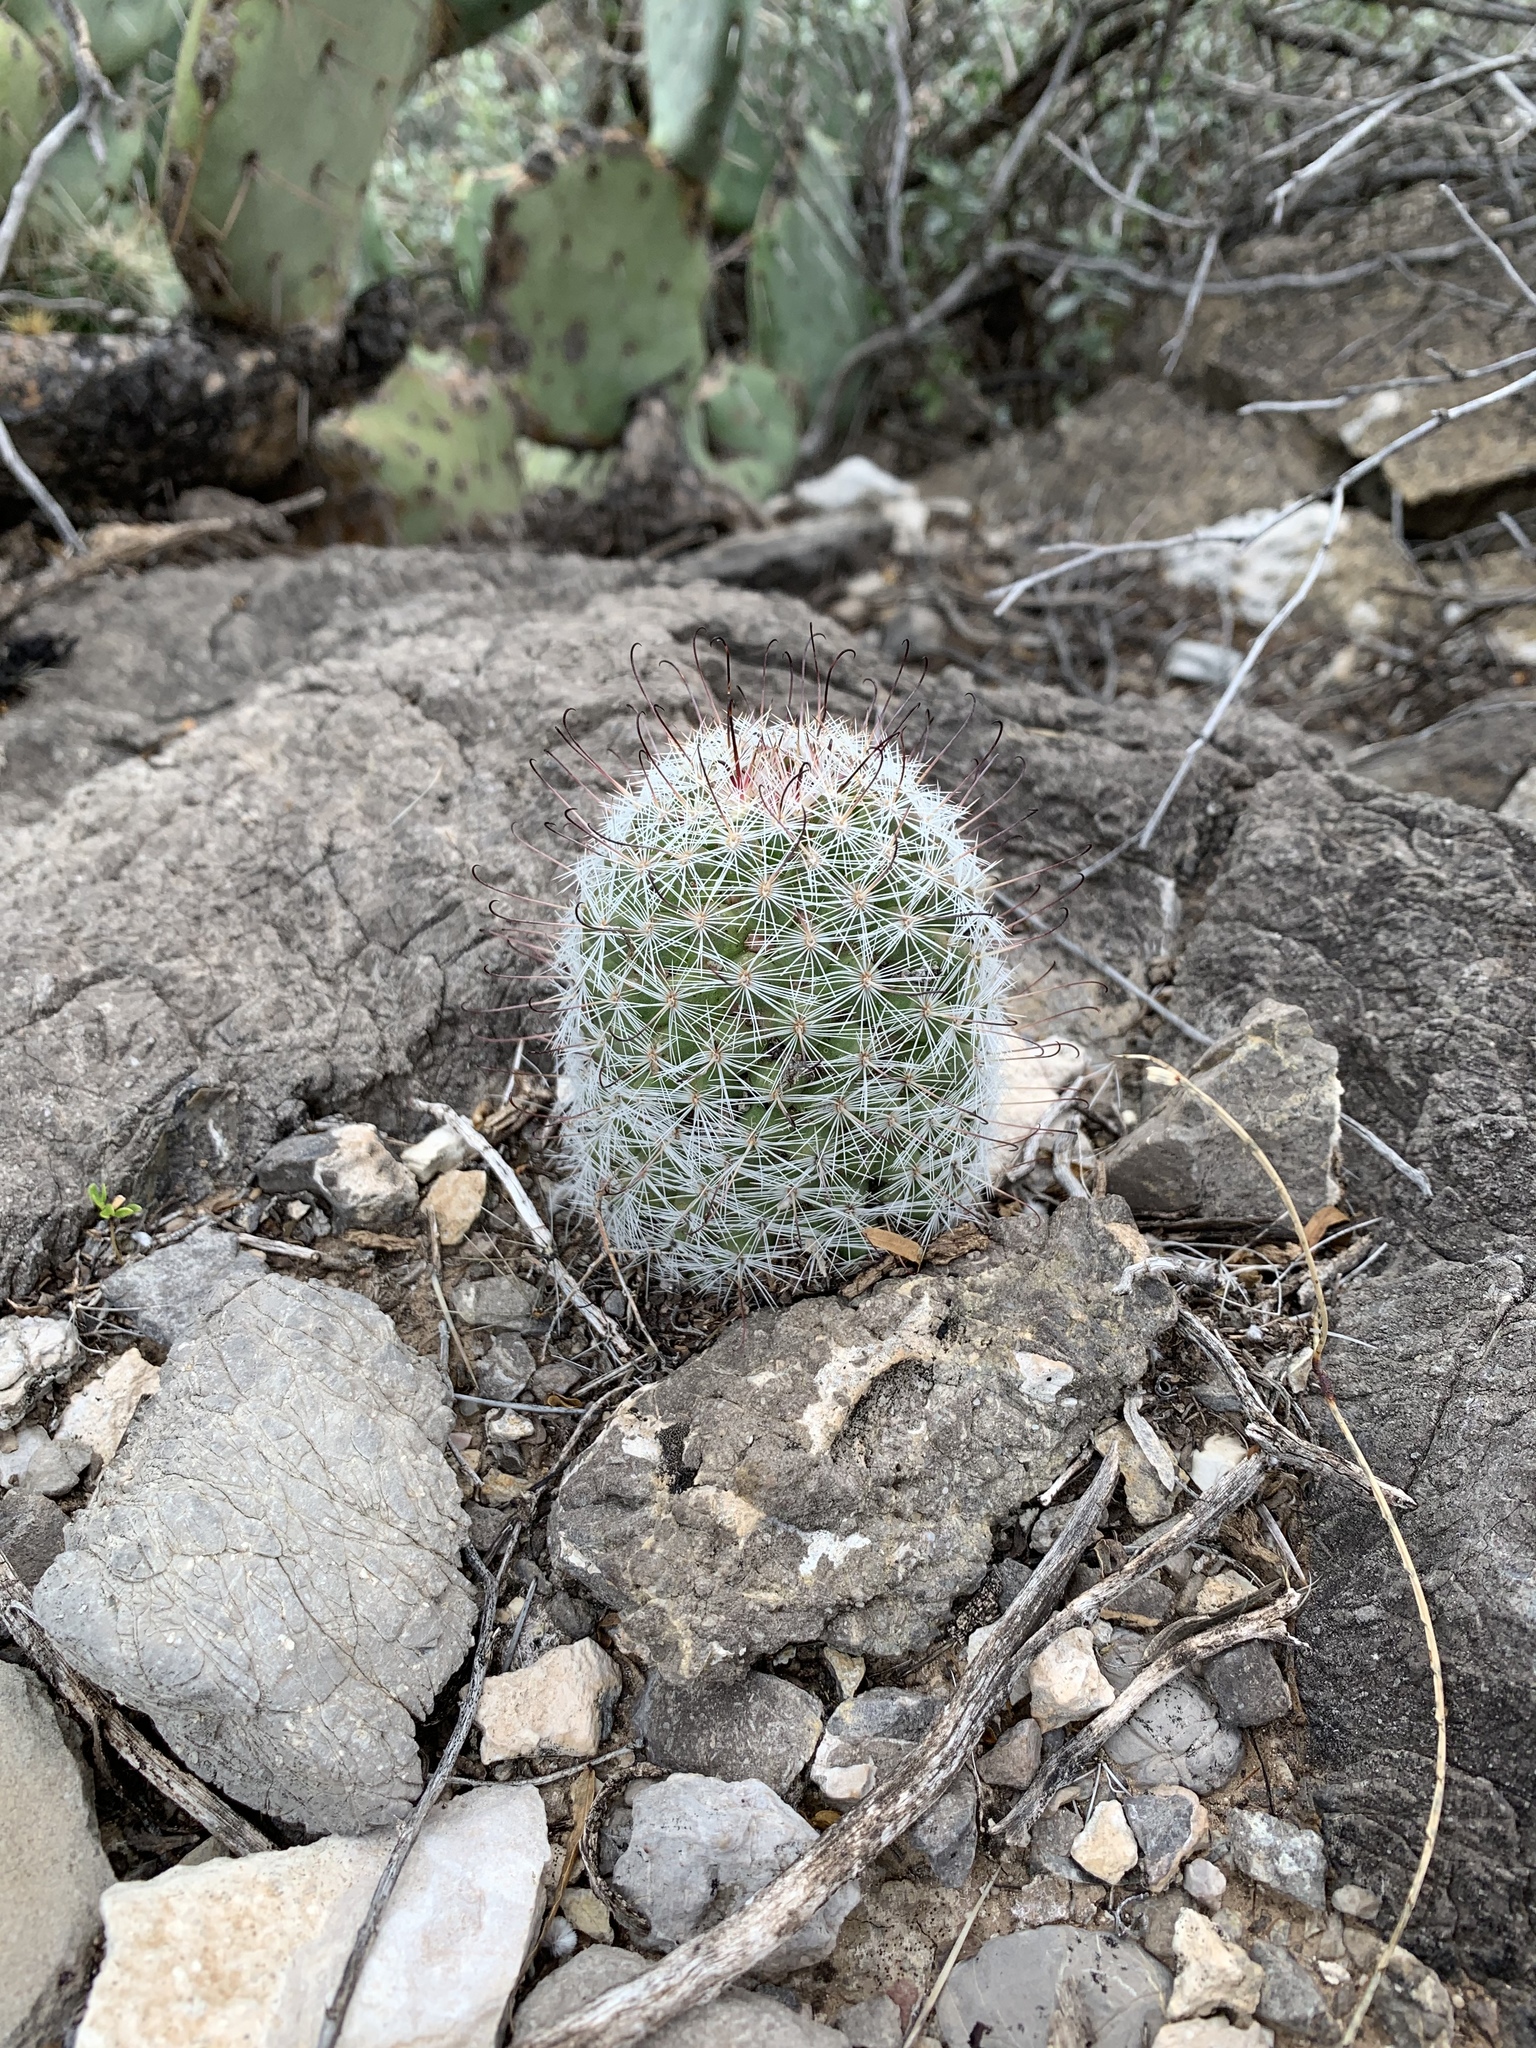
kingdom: Plantae
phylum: Tracheophyta
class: Magnoliopsida
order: Caryophyllales
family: Cactaceae
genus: Cochemiea
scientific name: Cochemiea grahamii
